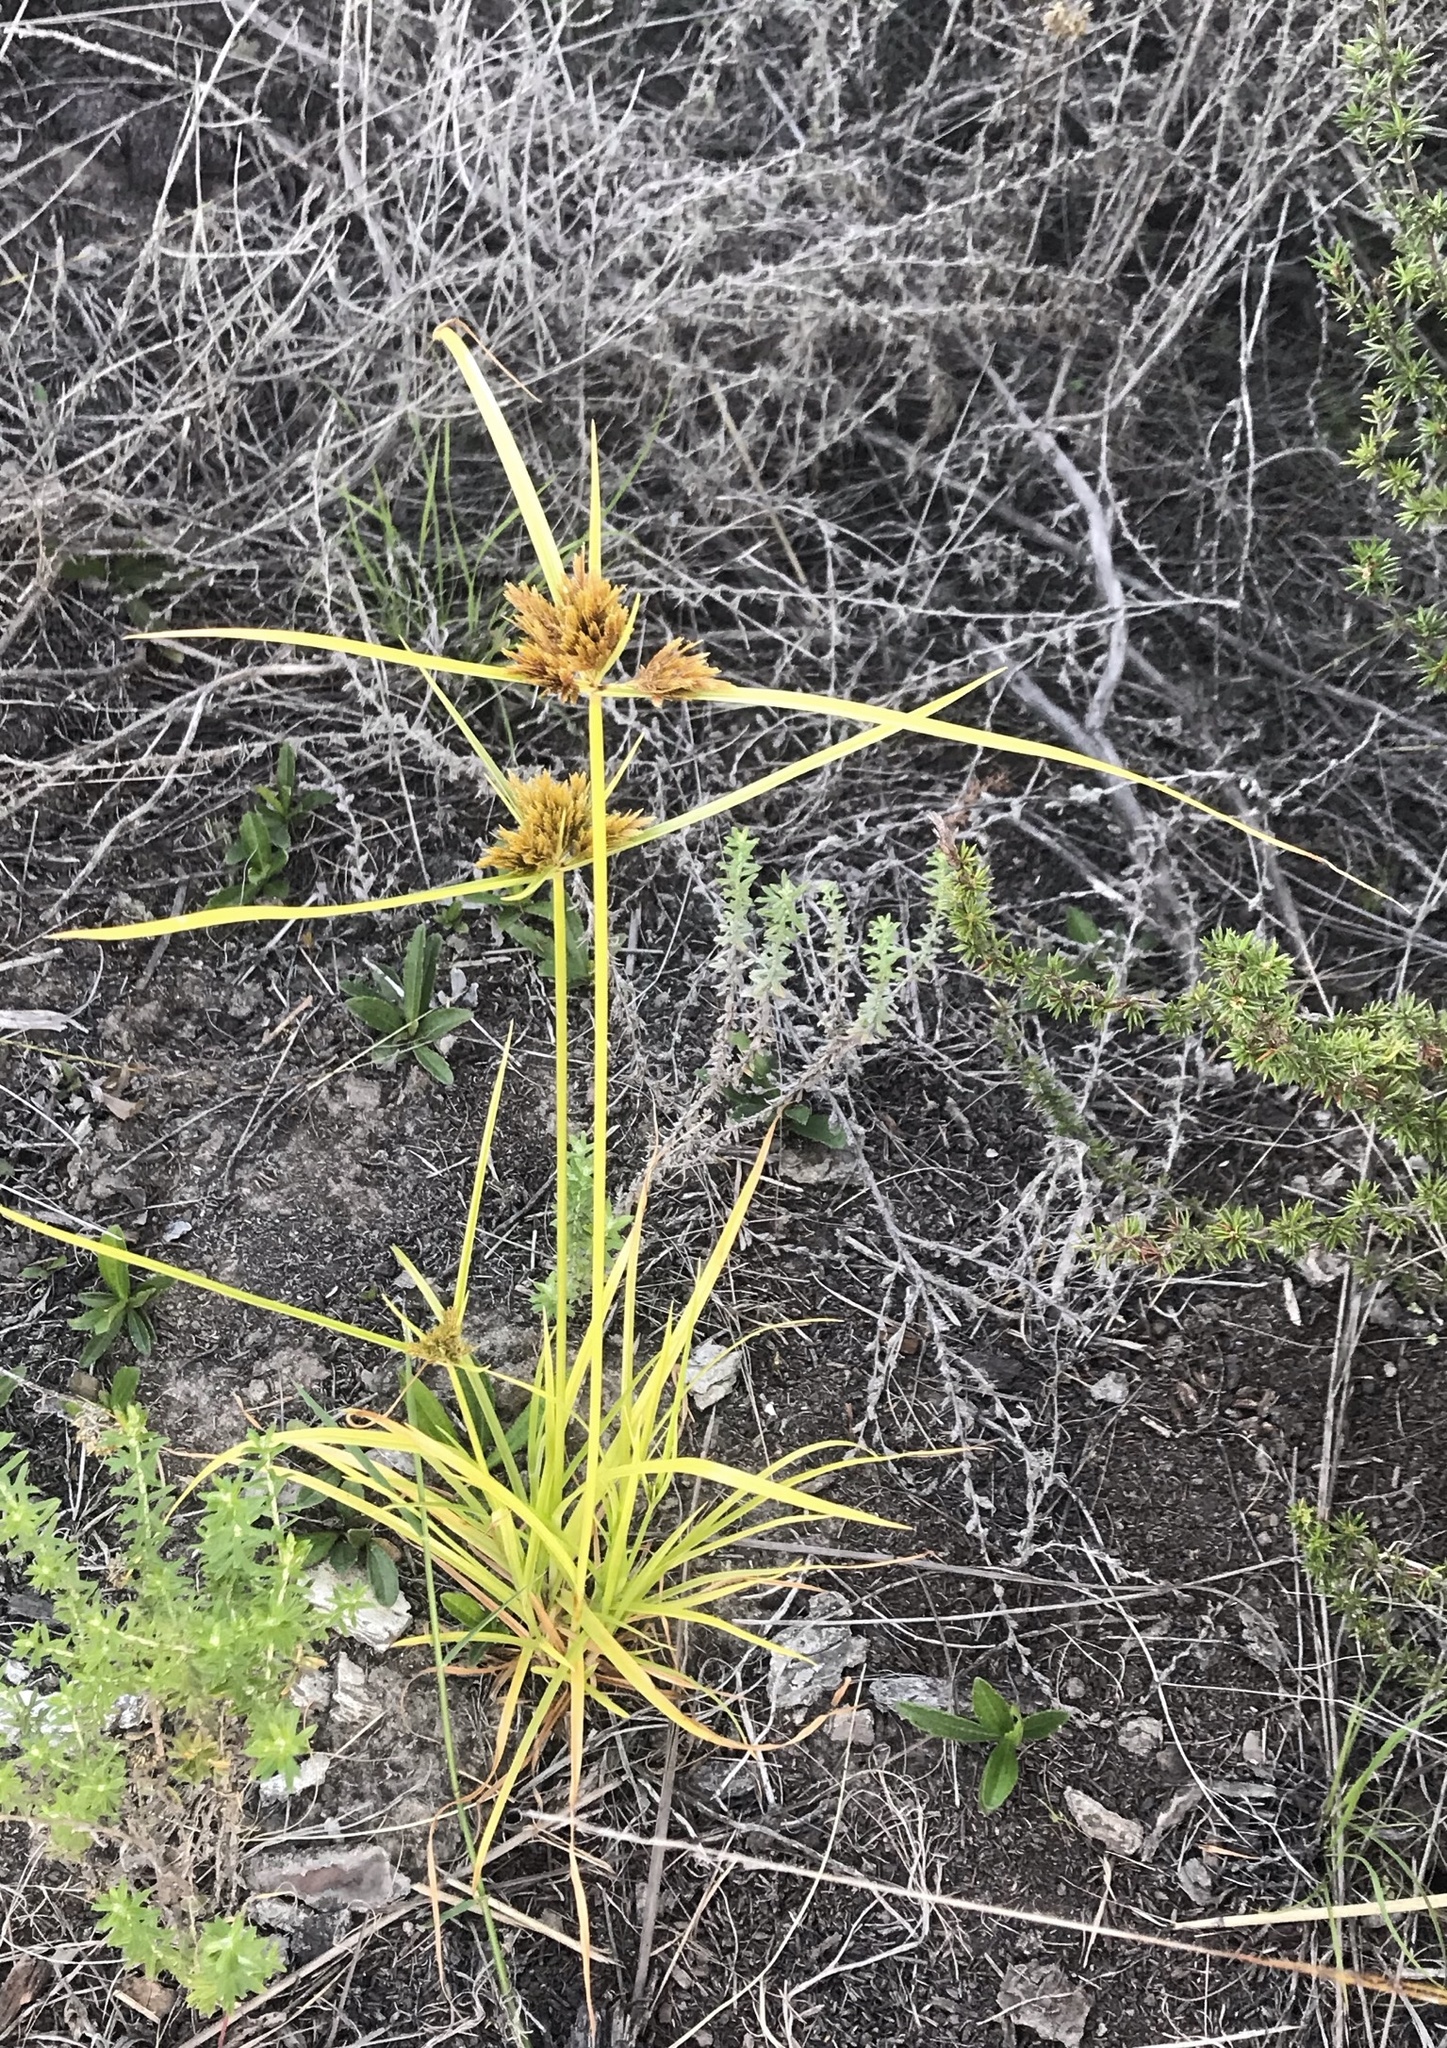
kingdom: Plantae
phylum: Tracheophyta
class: Liliopsida
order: Poales
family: Cyperaceae
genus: Cyperus
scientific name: Cyperus polystachyos
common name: Bunchy flat sedge
